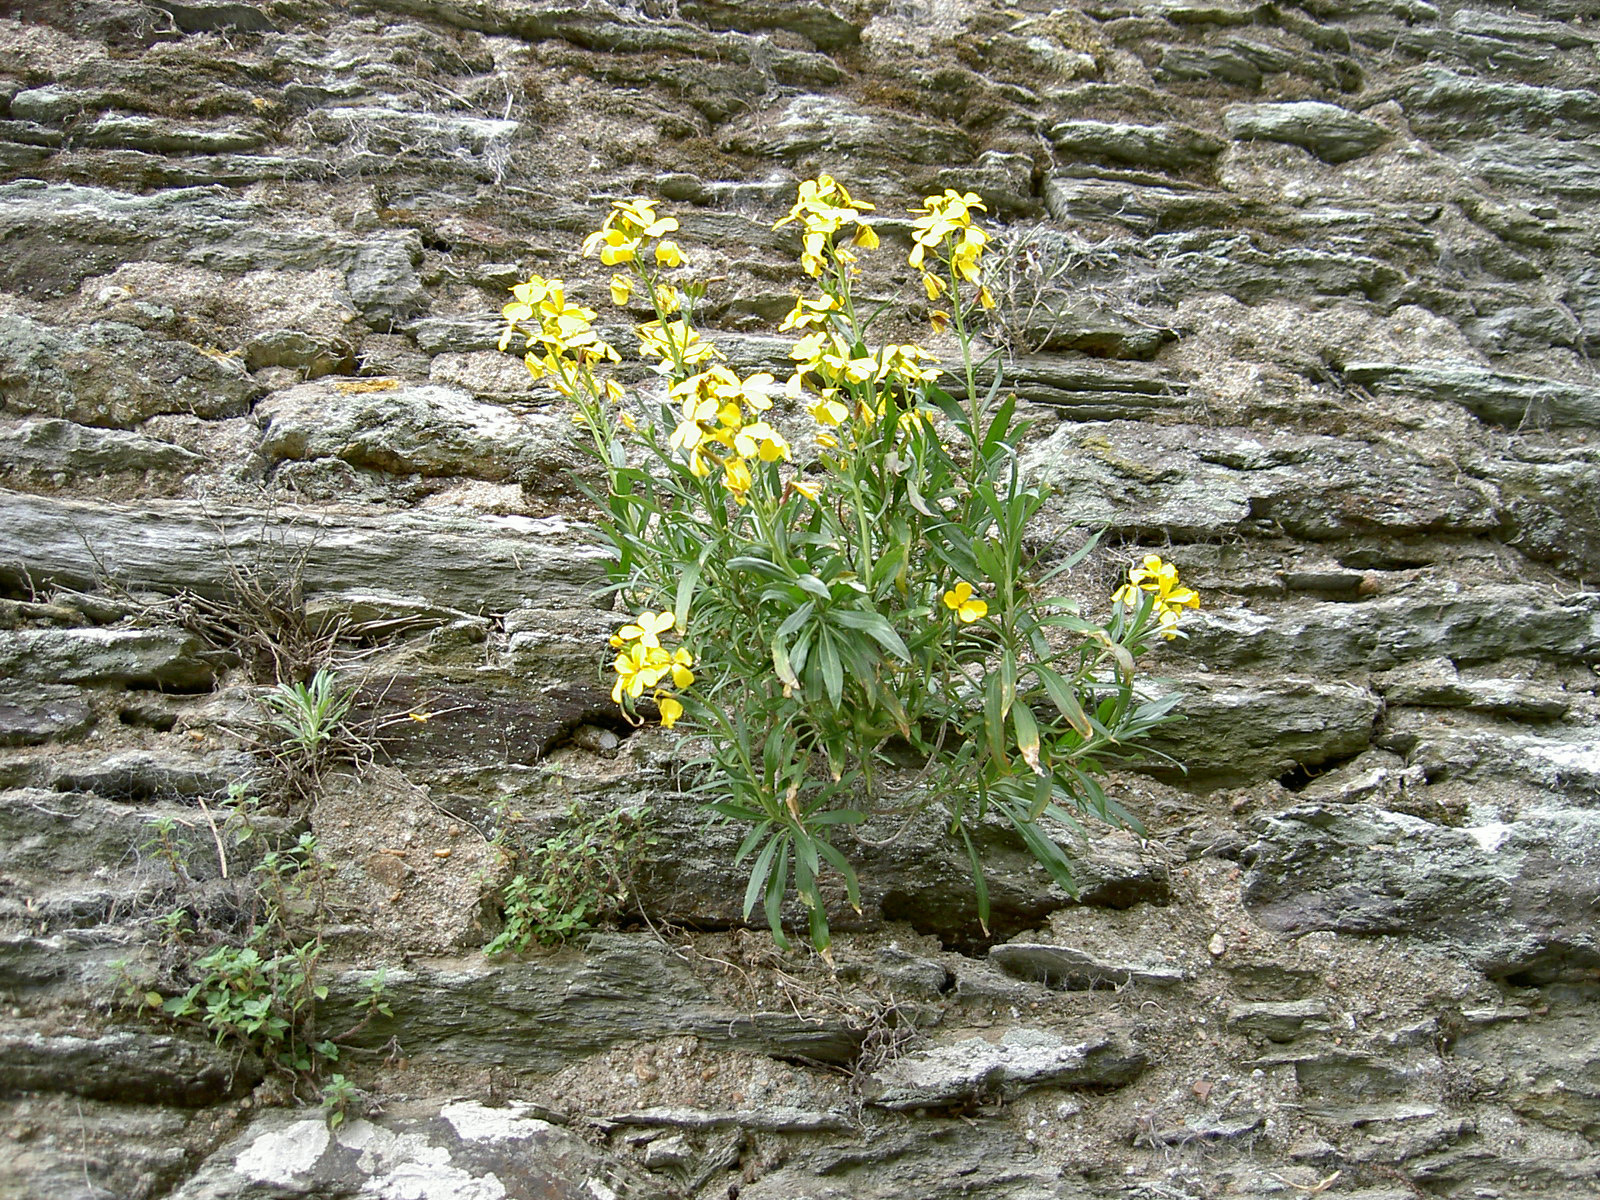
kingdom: Plantae
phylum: Tracheophyta
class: Magnoliopsida
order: Brassicales
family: Brassicaceae
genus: Erysimum
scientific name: Erysimum cheiri
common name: Wallflower
